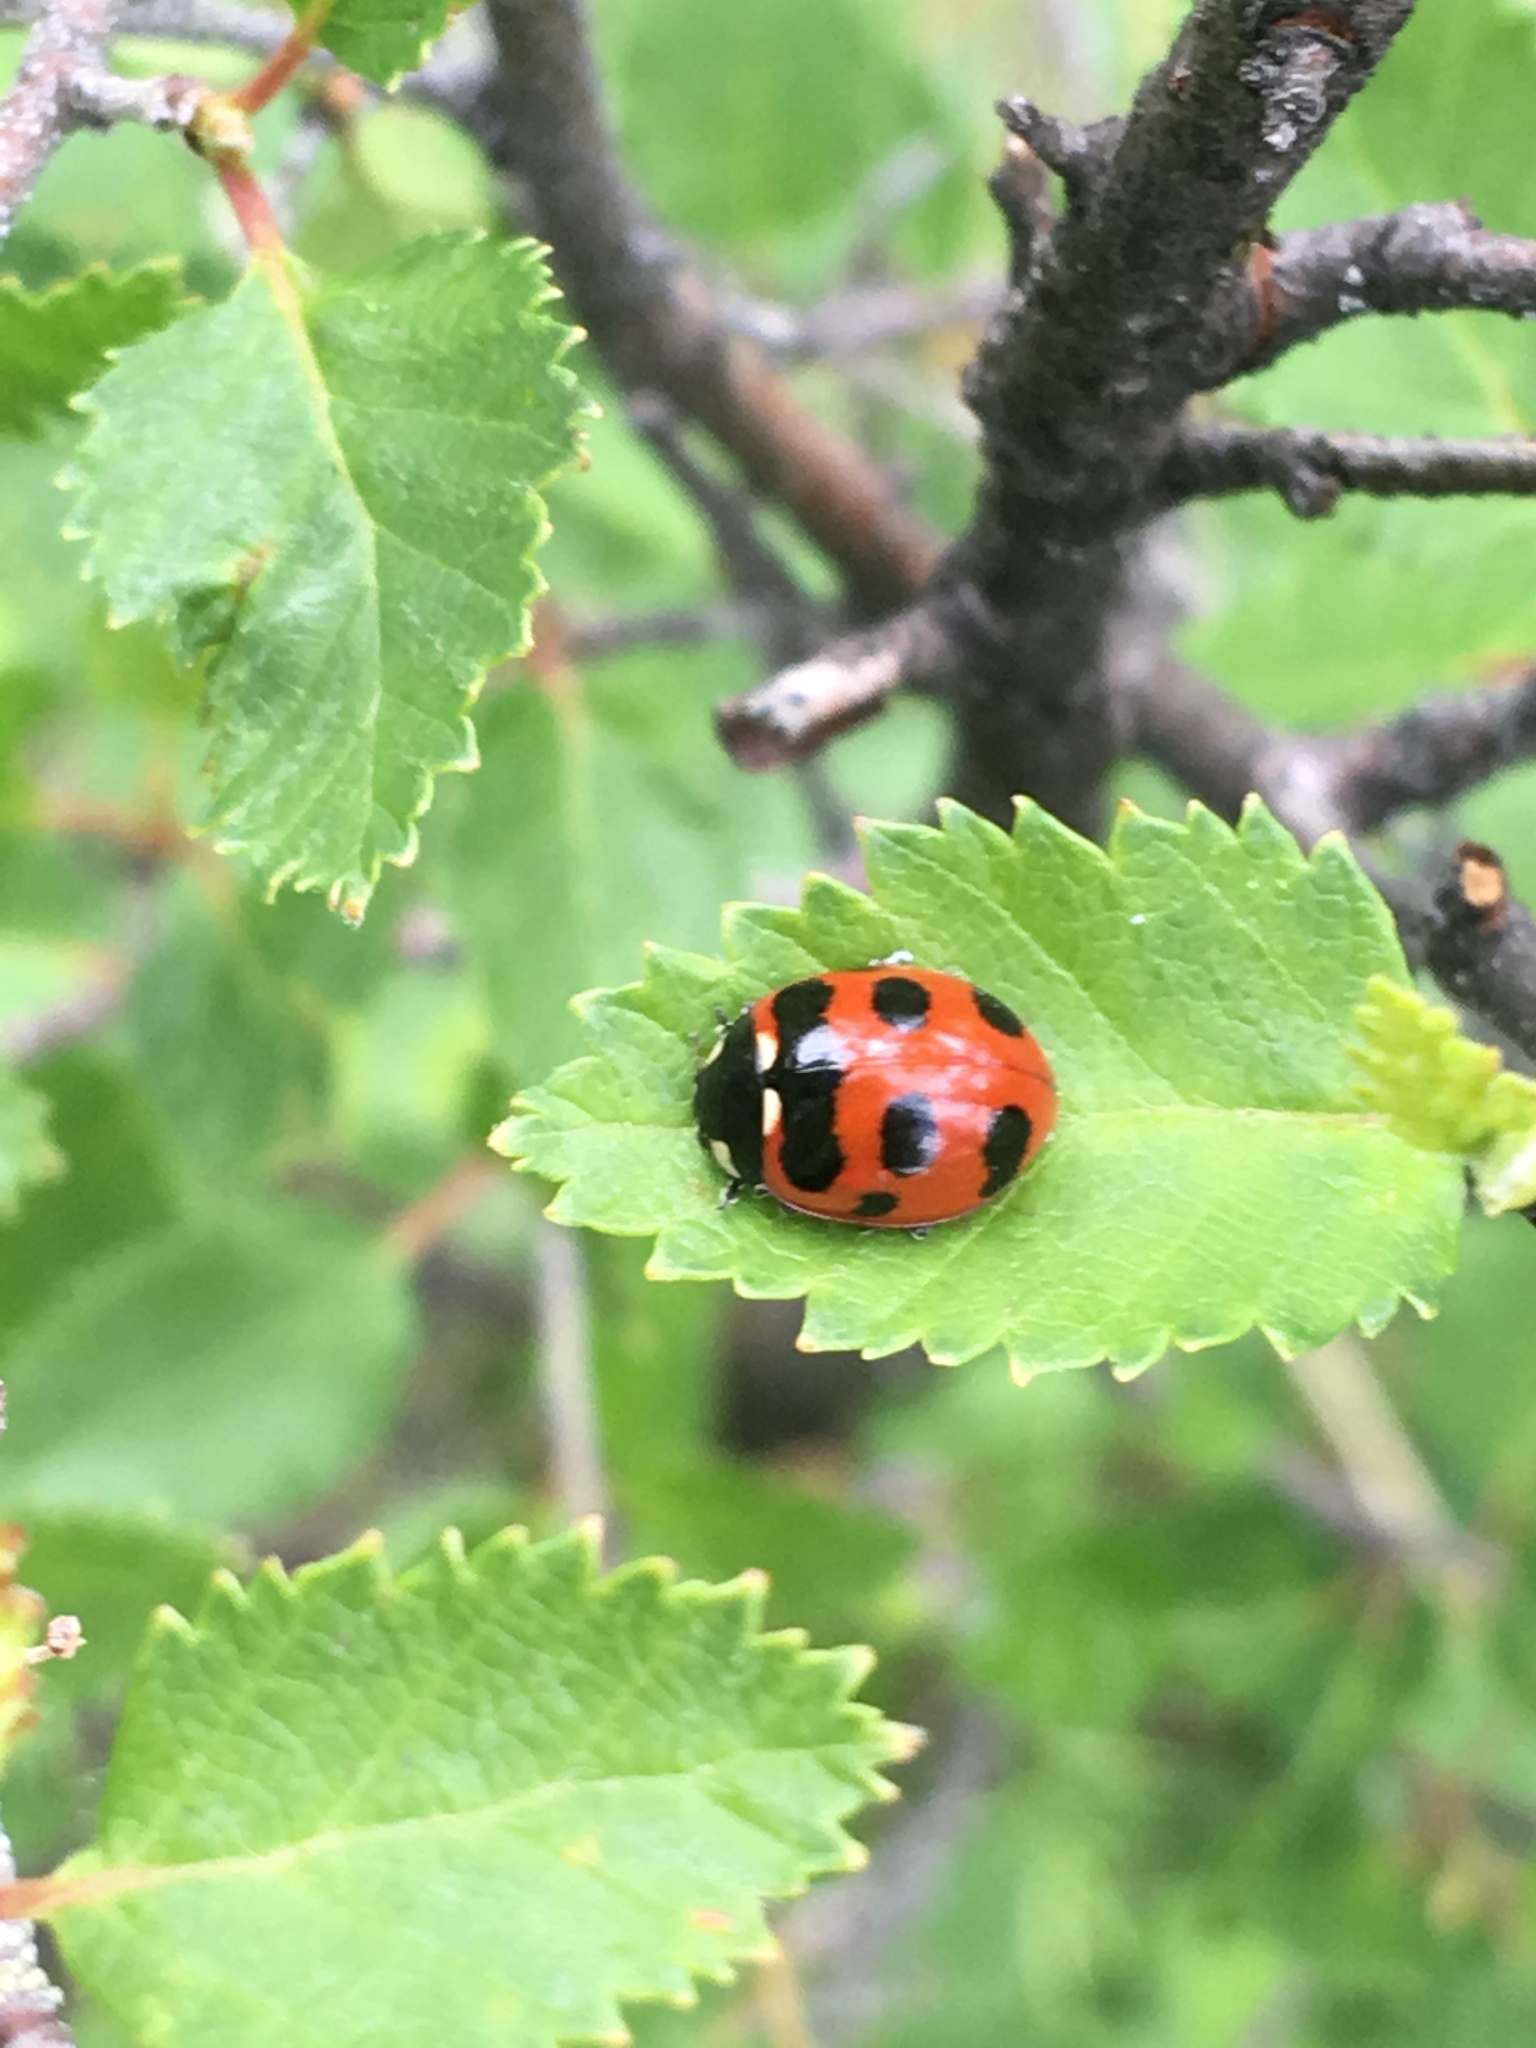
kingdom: Animalia
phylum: Arthropoda
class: Insecta
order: Coleoptera
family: Coccinellidae
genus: Coccinella
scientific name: Coccinella transversoguttata
